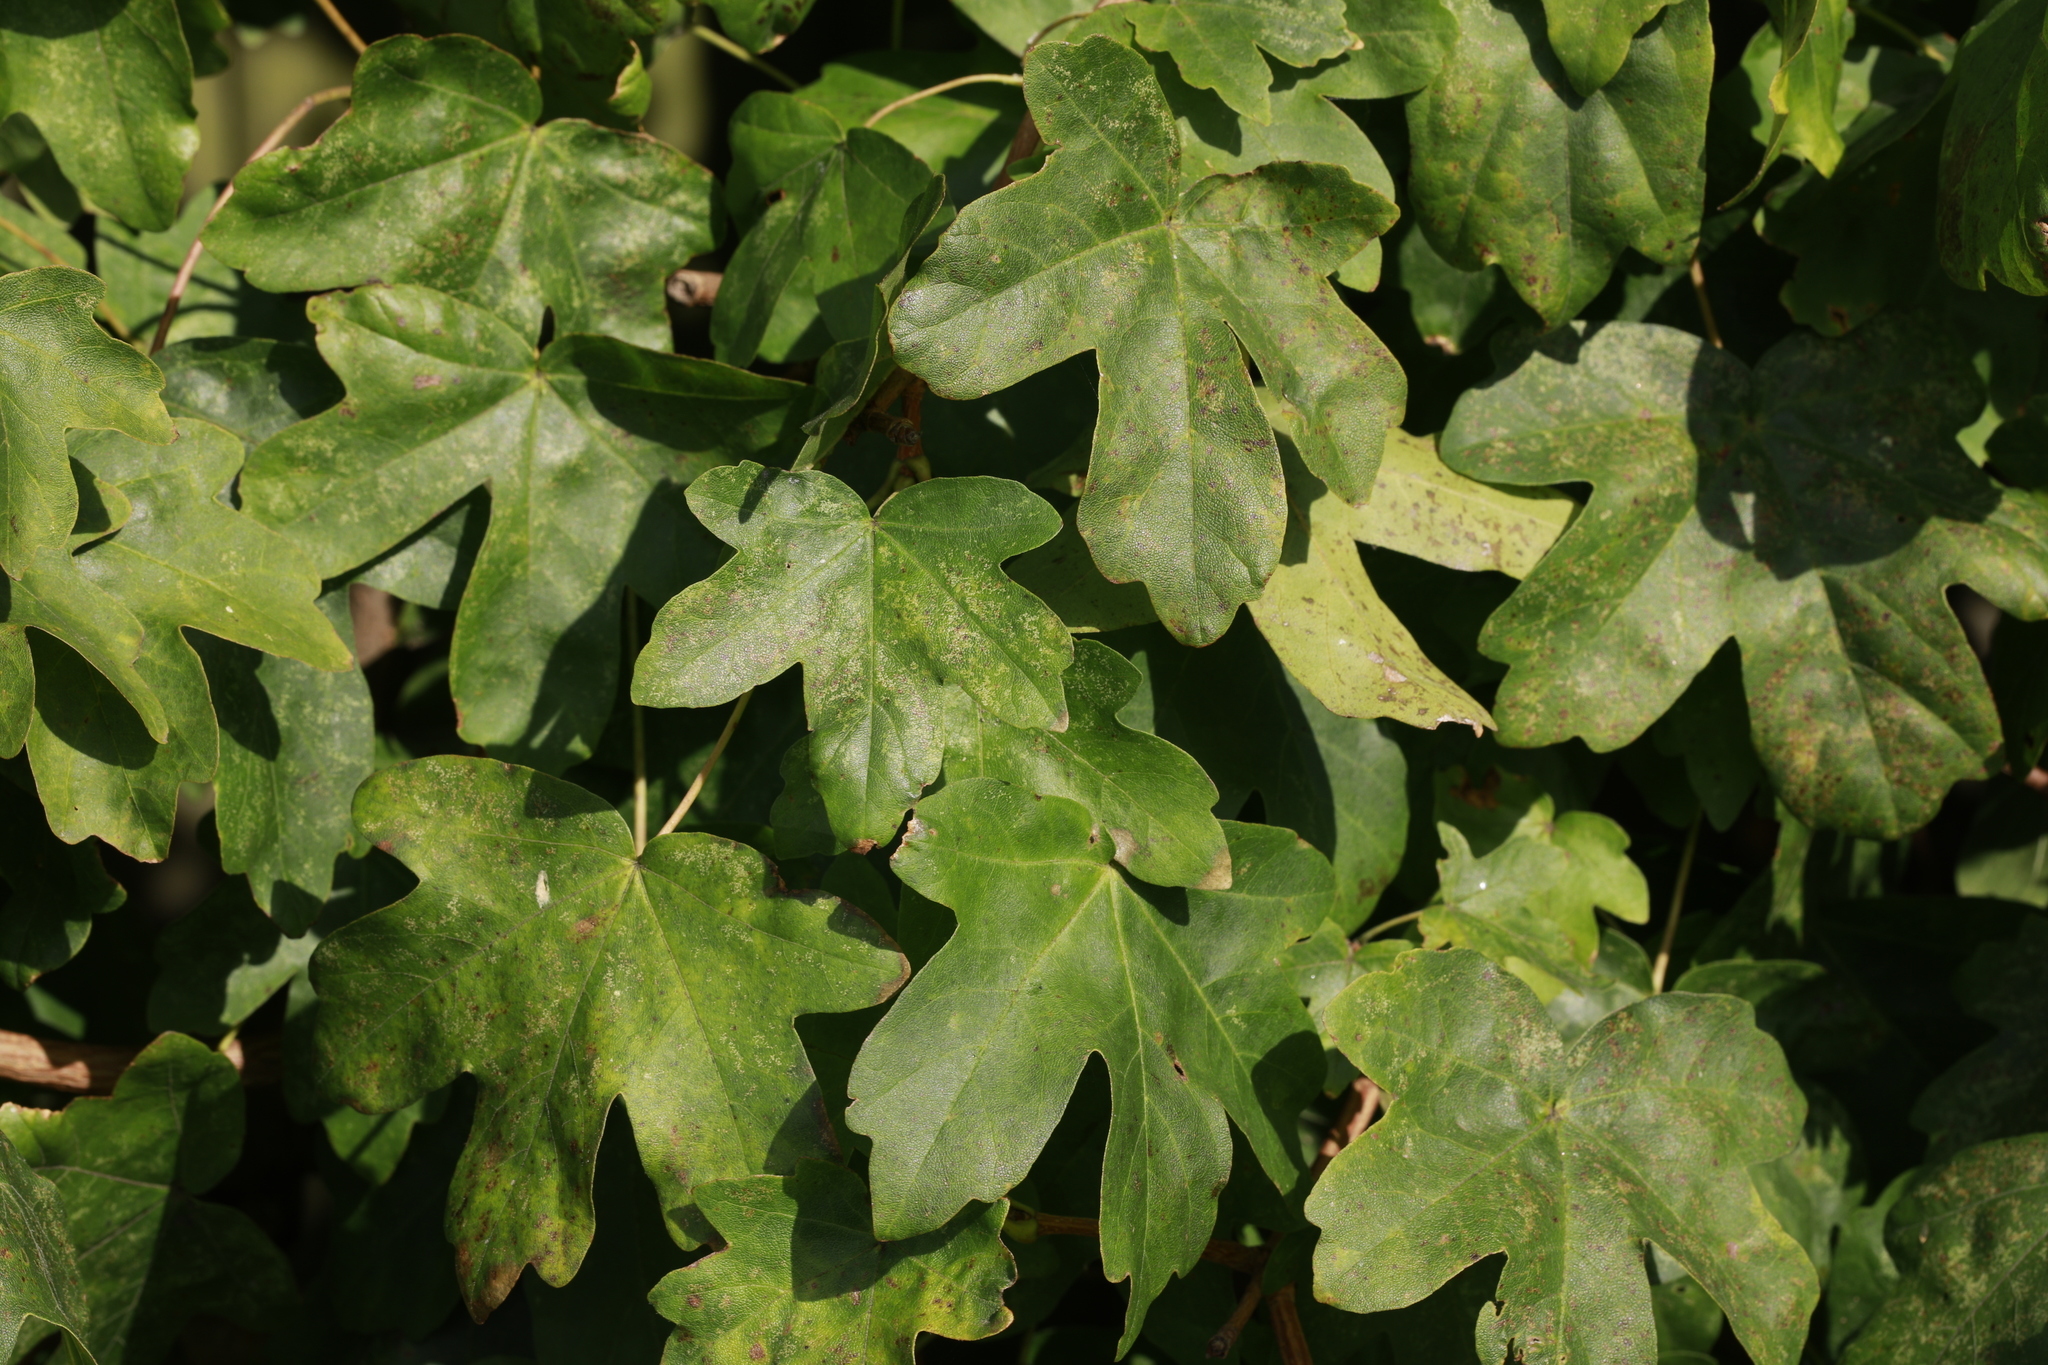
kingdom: Plantae
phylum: Tracheophyta
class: Magnoliopsida
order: Sapindales
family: Sapindaceae
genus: Acer
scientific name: Acer campestre
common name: Field maple
